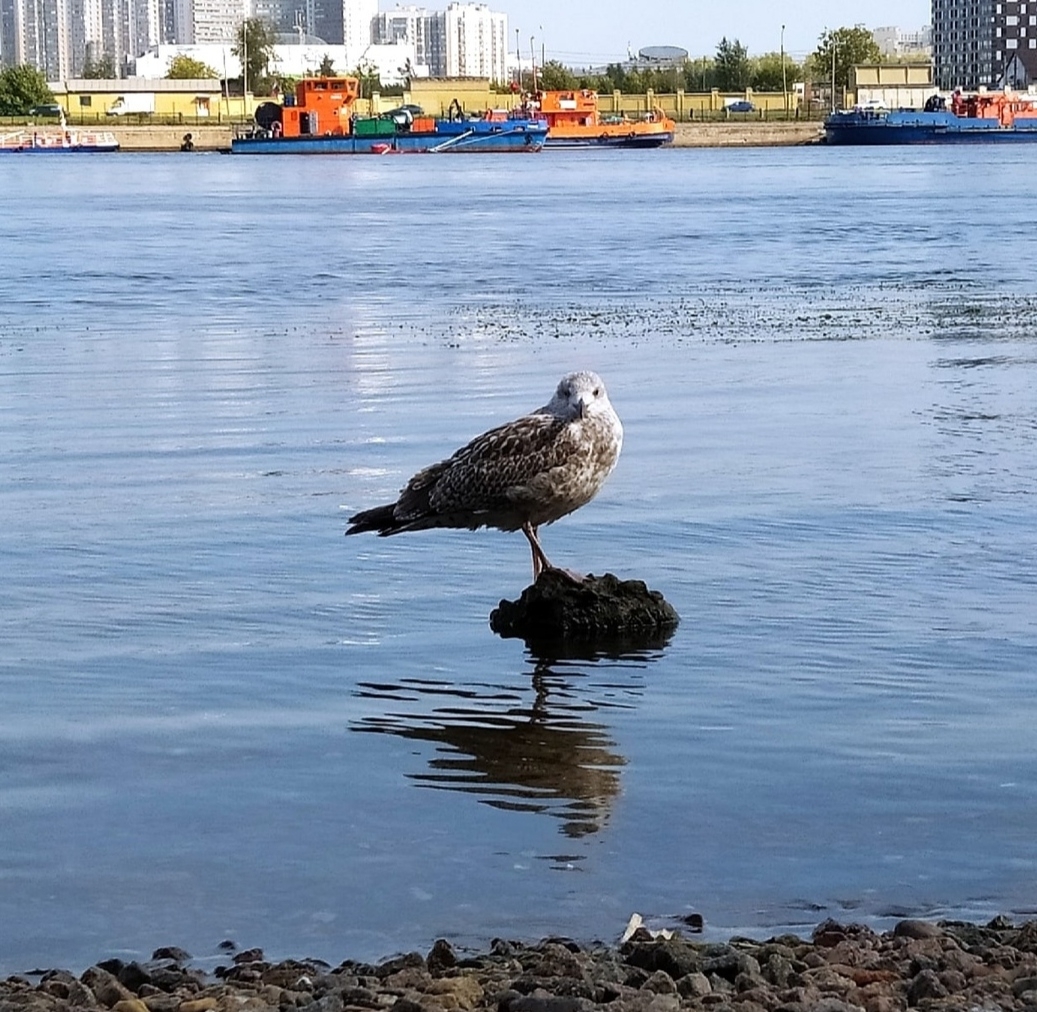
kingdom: Animalia
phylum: Chordata
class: Aves
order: Charadriiformes
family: Laridae
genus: Larus
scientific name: Larus argentatus
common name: Herring gull
